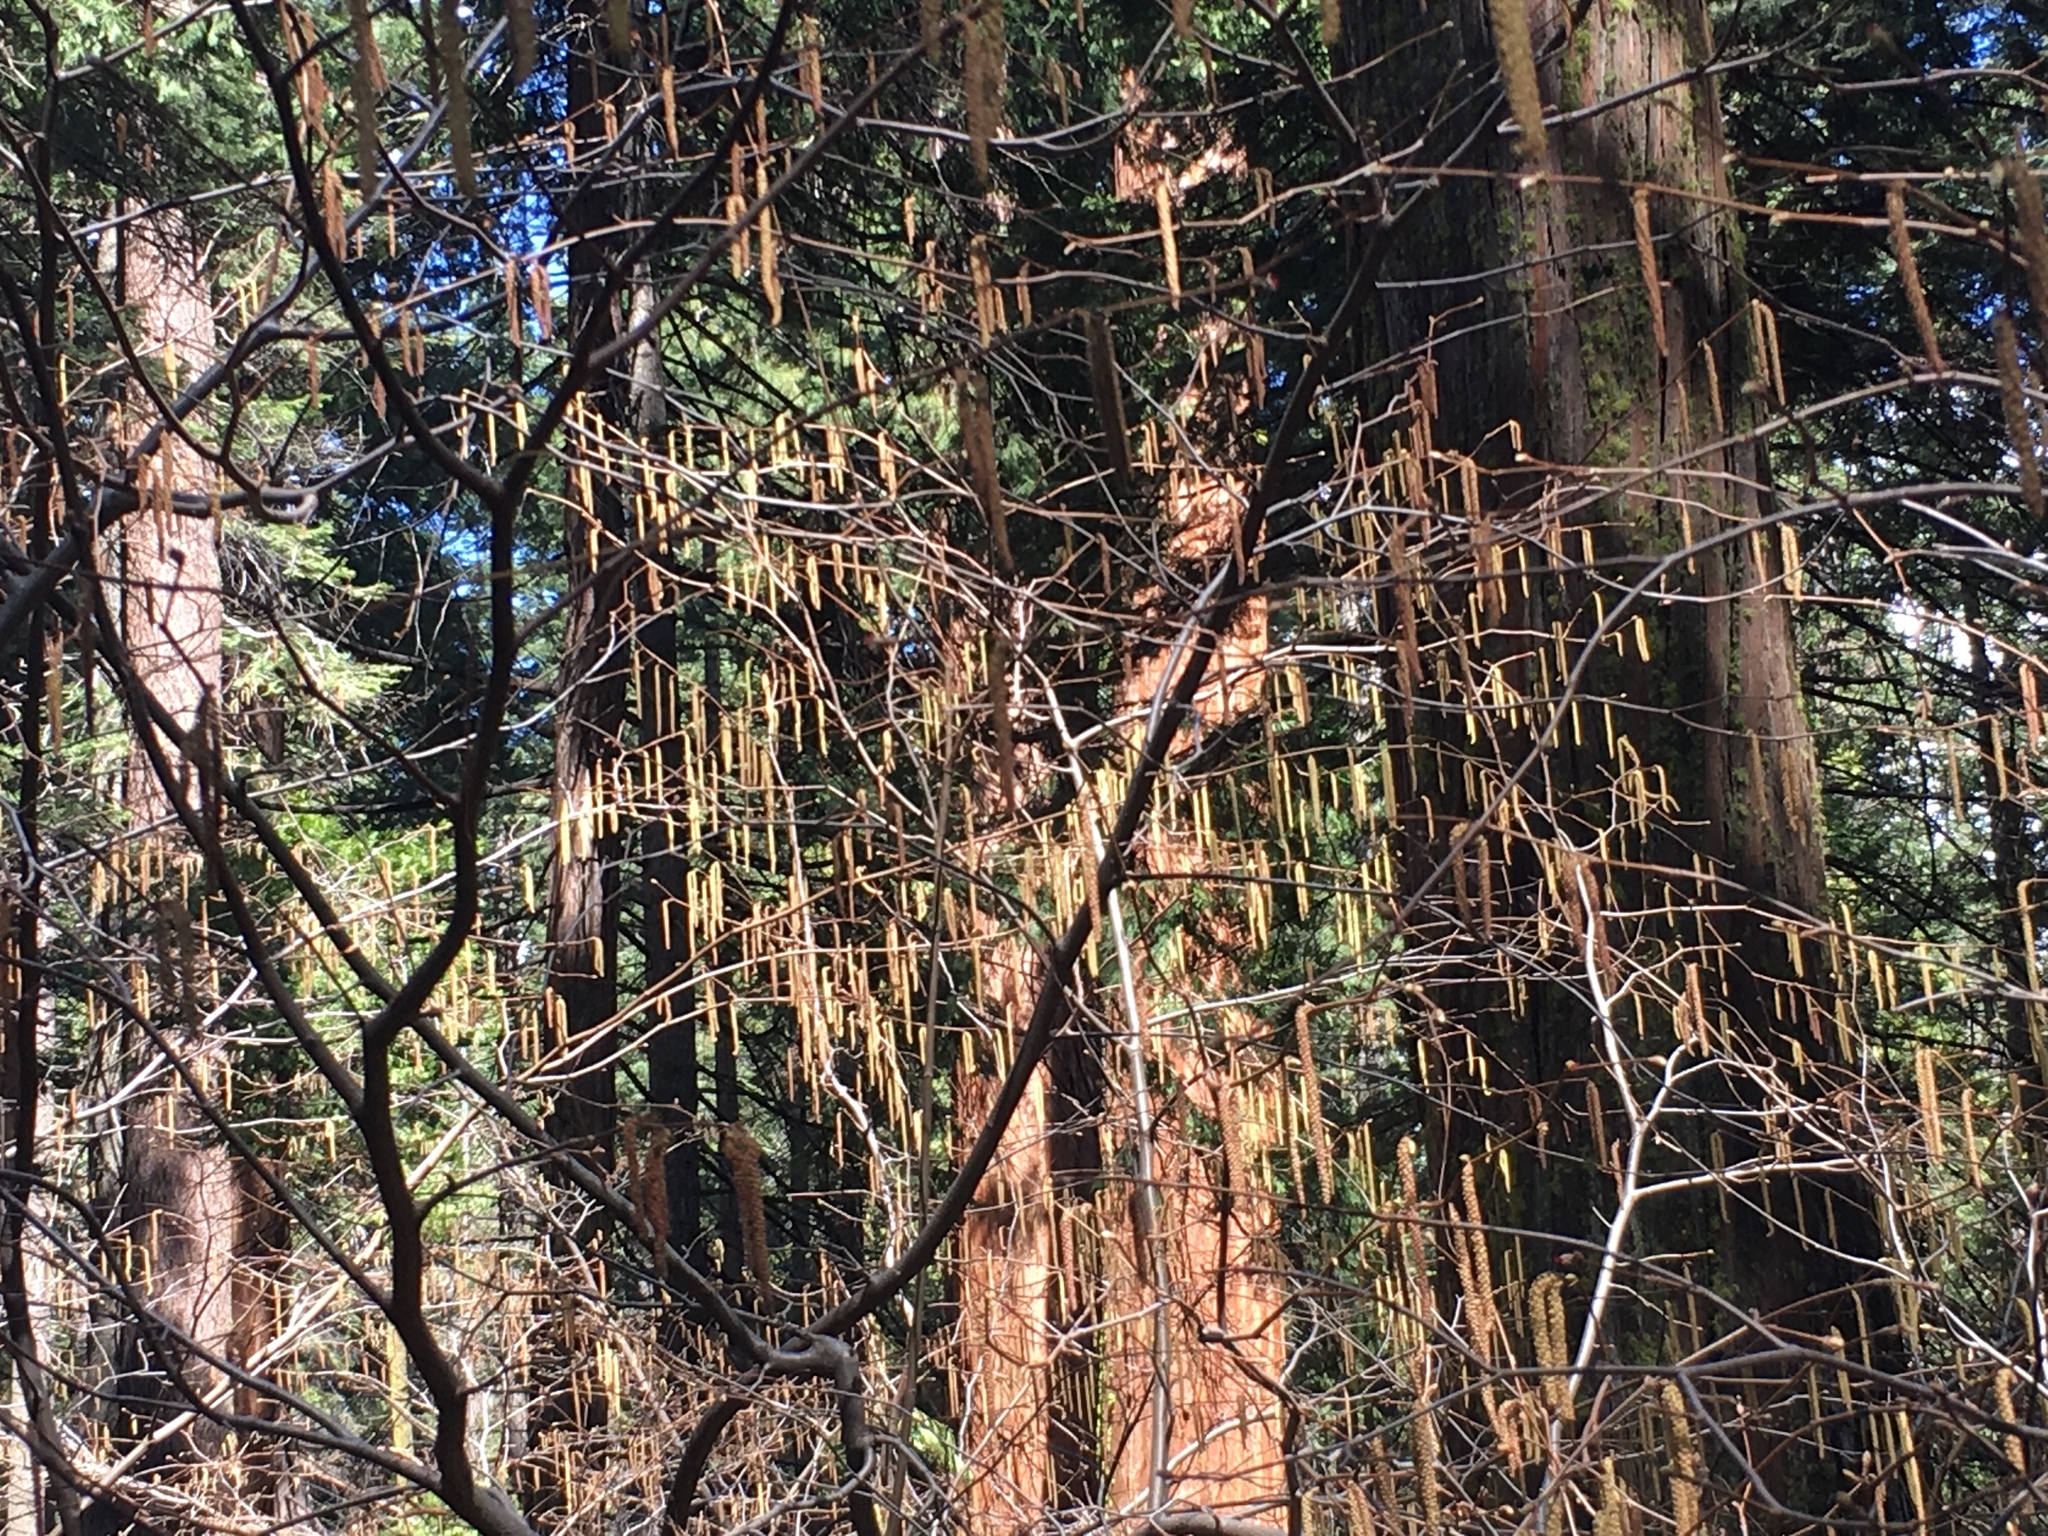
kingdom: Plantae
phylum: Tracheophyta
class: Magnoliopsida
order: Fagales
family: Betulaceae
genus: Corylus
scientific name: Corylus cornuta
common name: Beaked hazel
